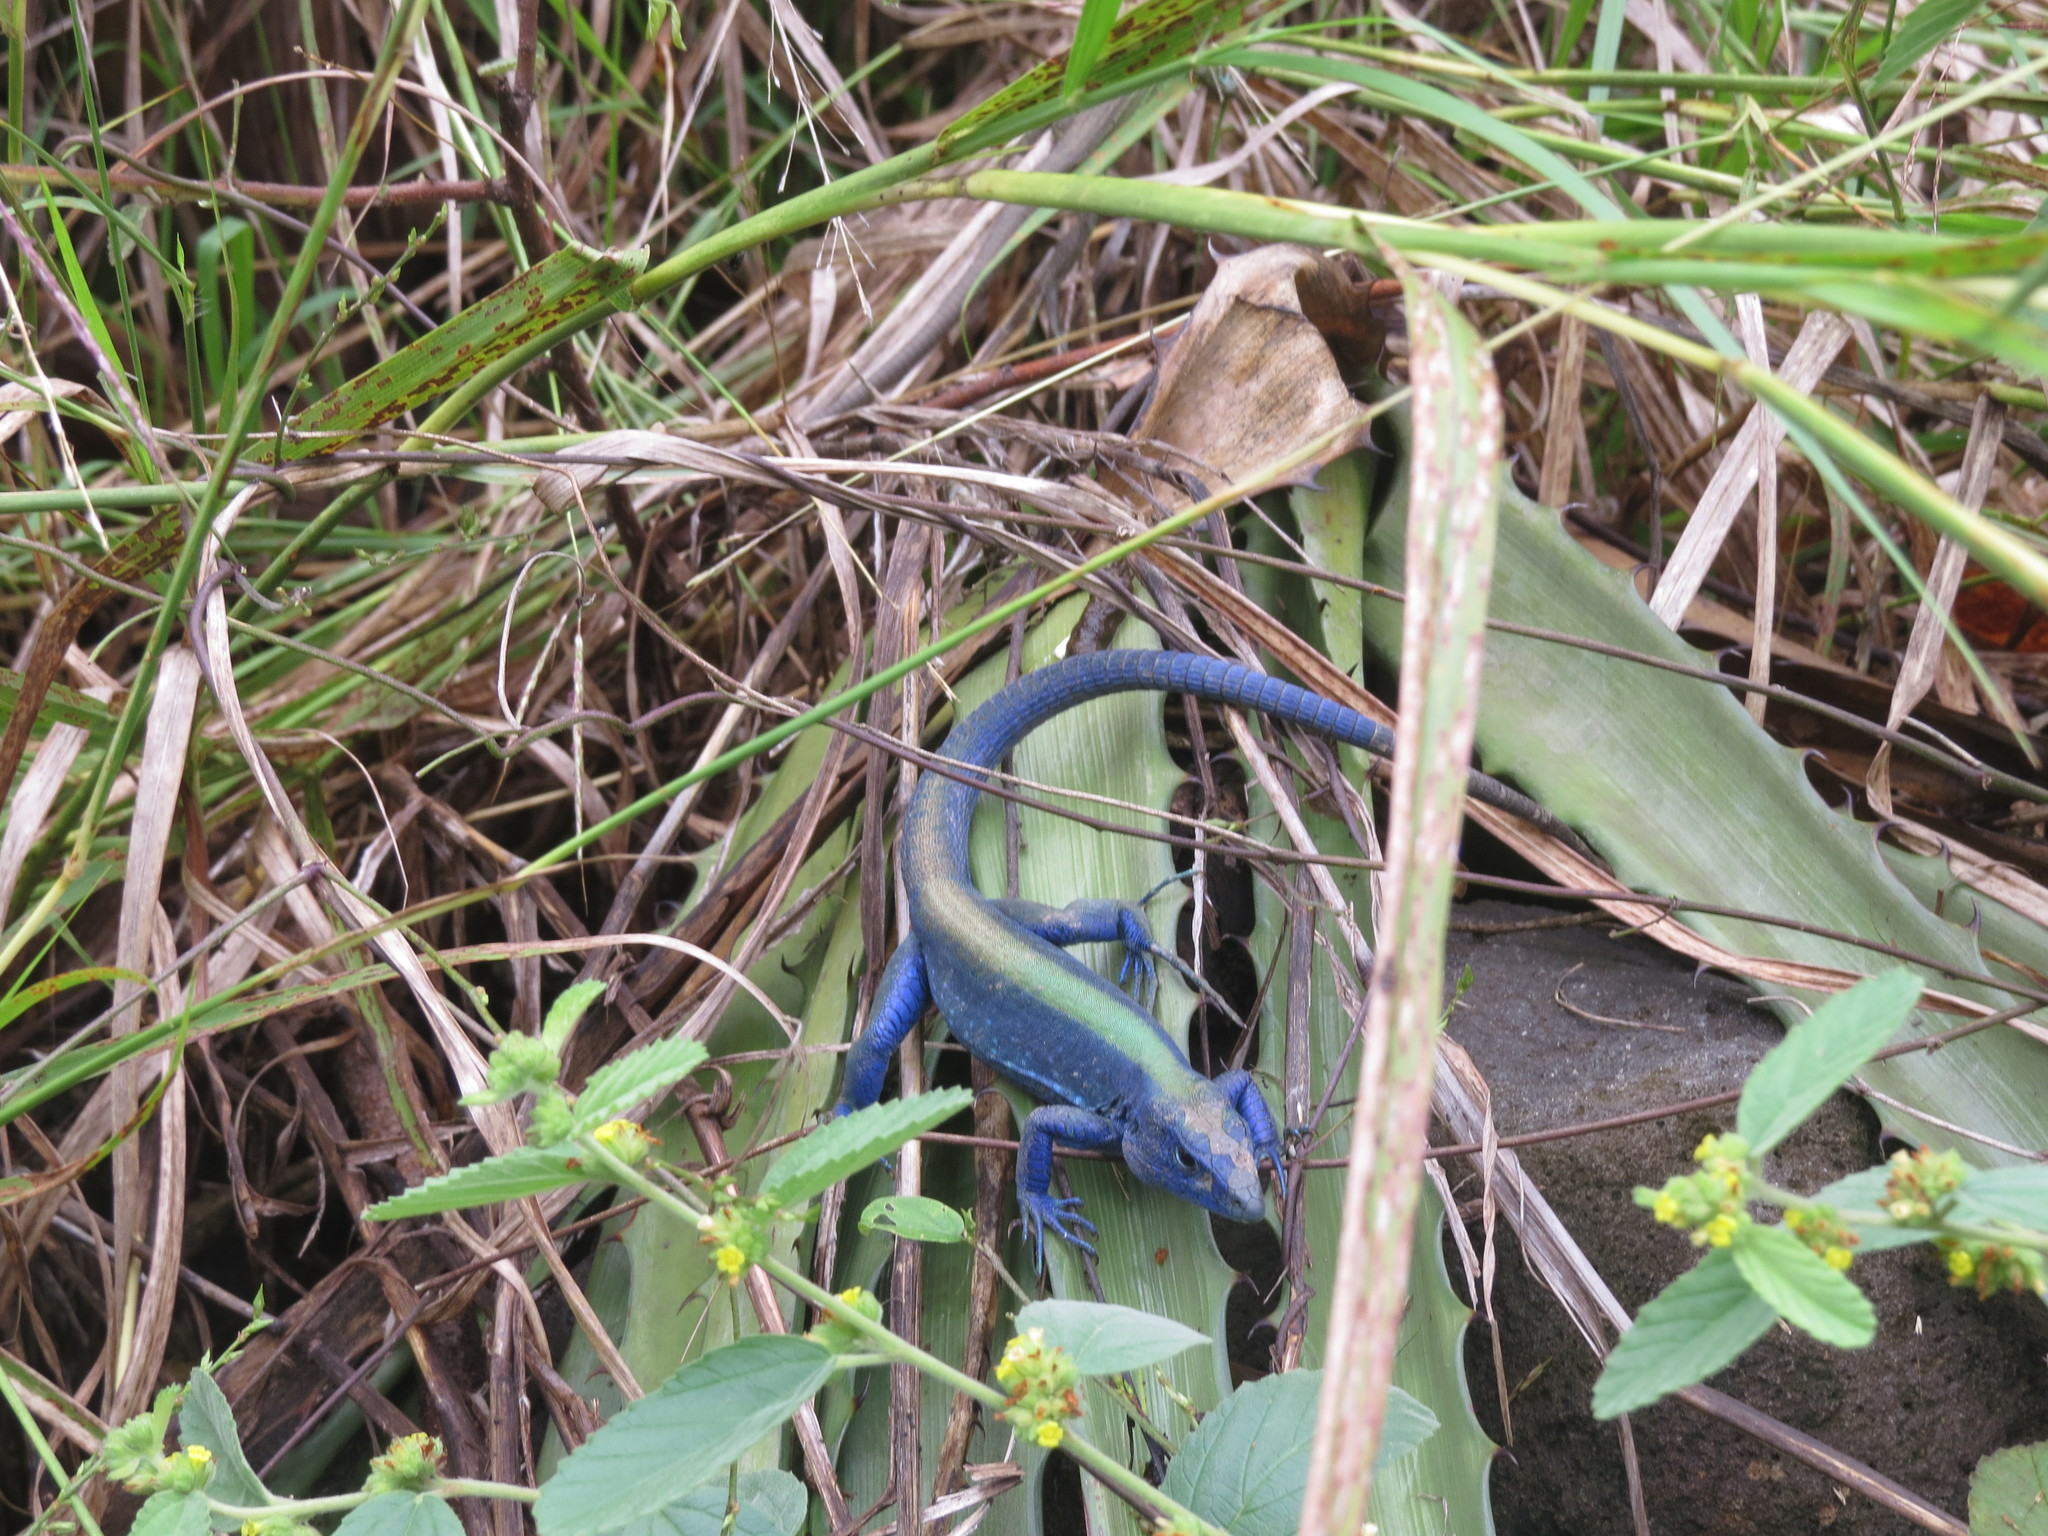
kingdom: Animalia
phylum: Chordata
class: Squamata
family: Teiidae
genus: Cnemidophorus
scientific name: Cnemidophorus espeuti
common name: Rainbow lizard
